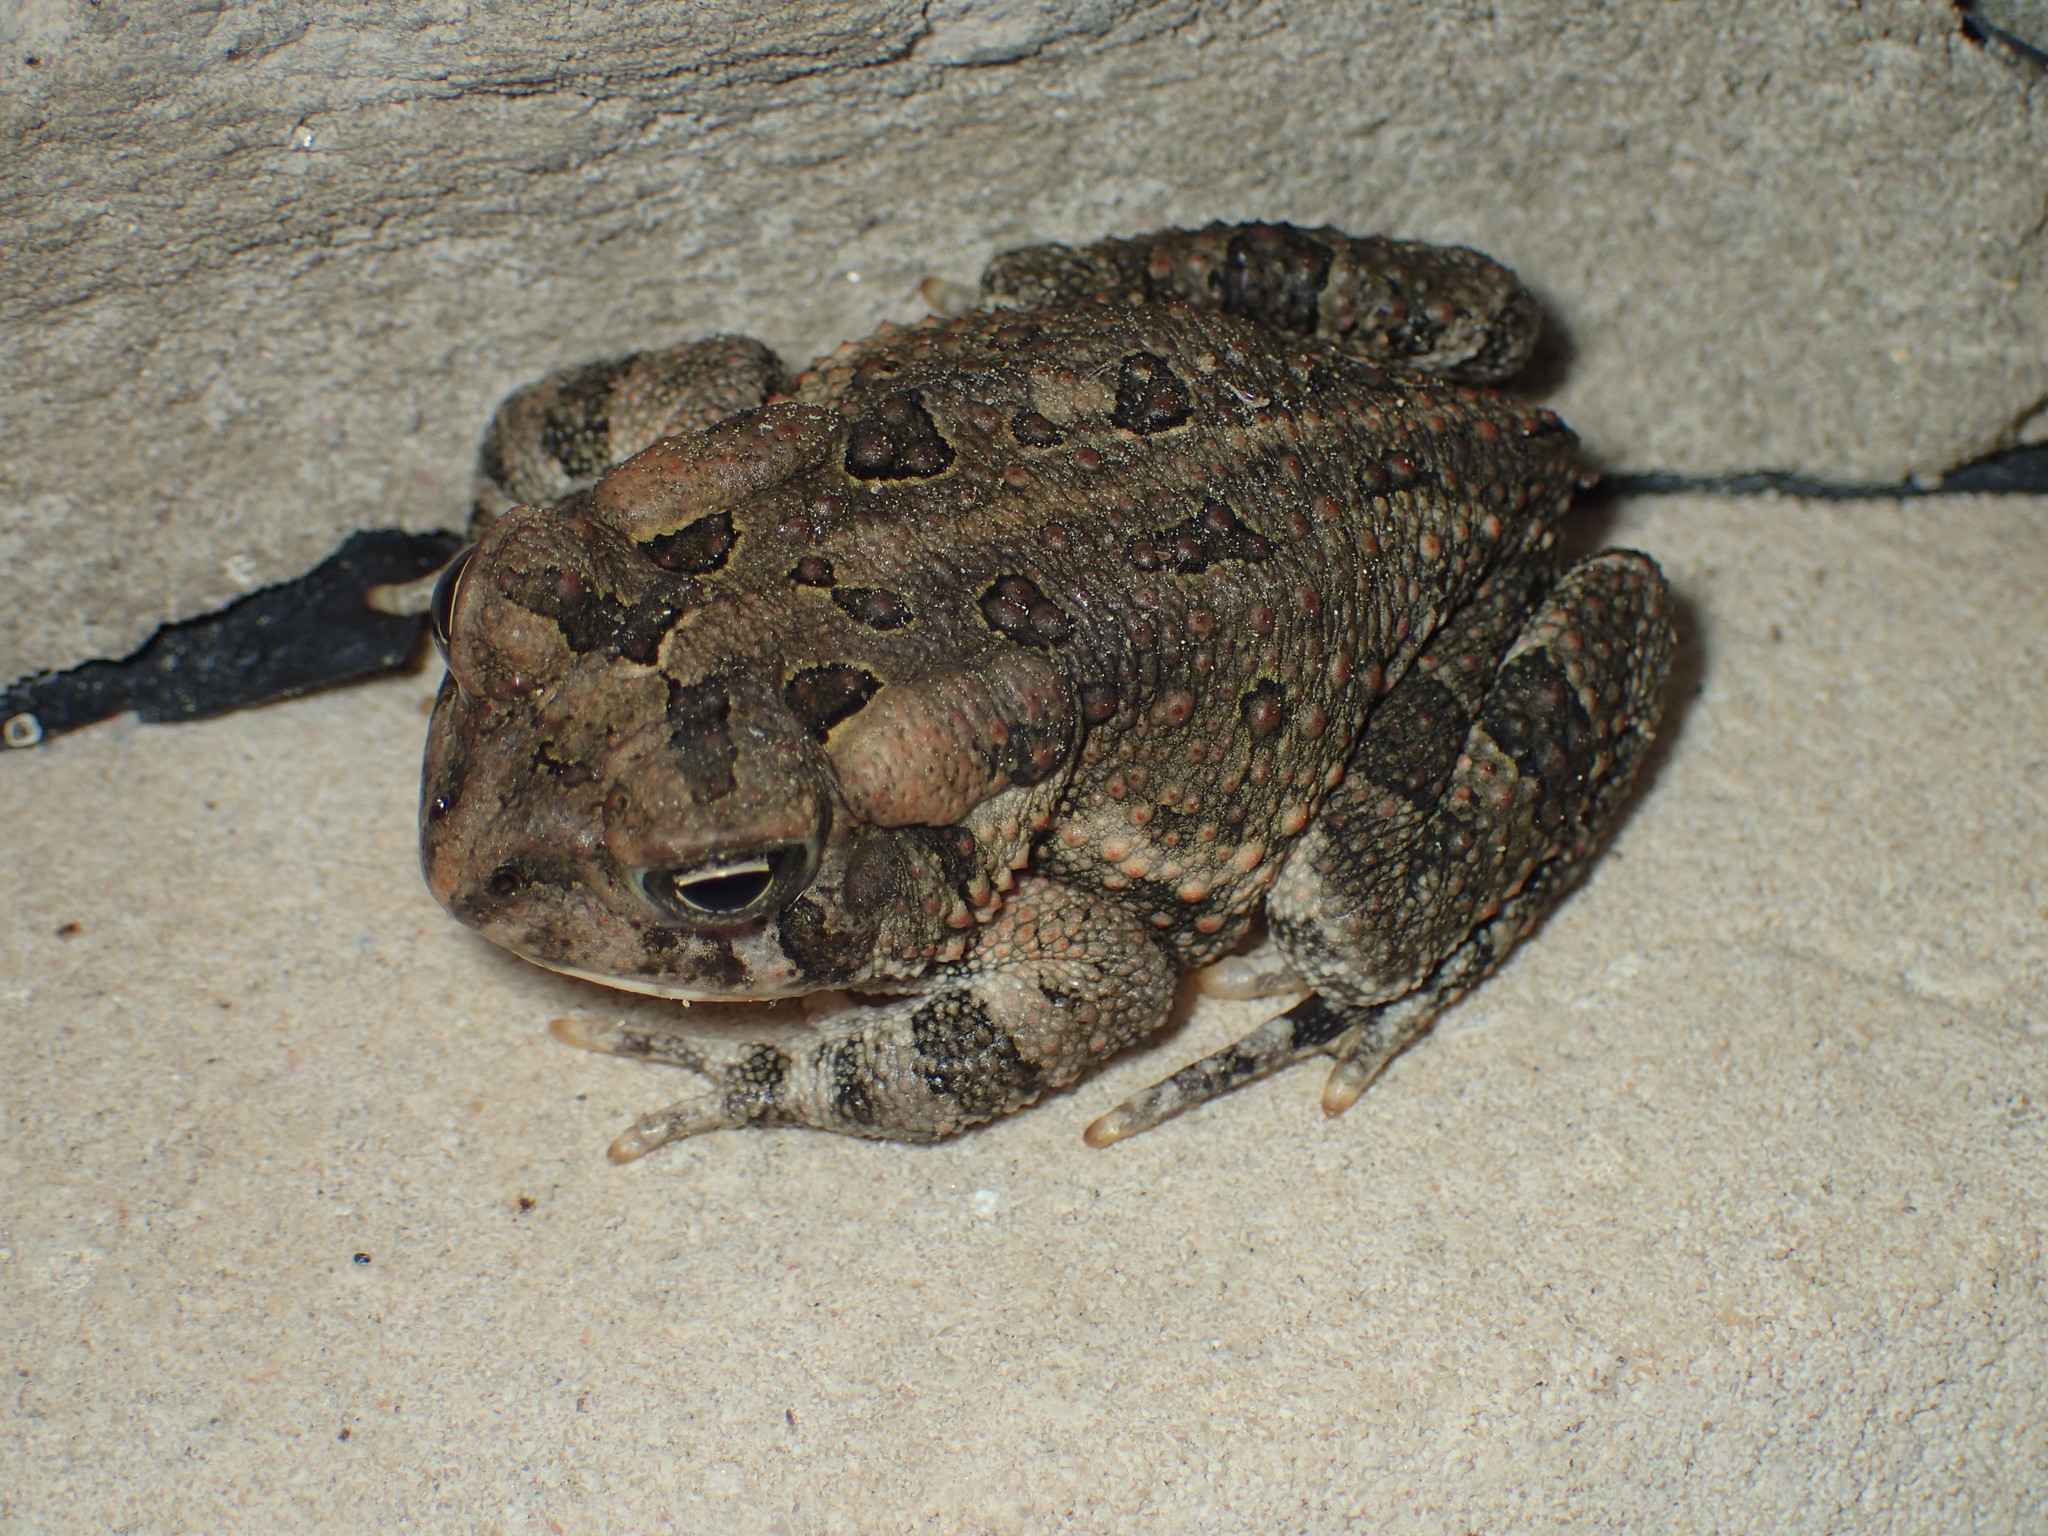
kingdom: Animalia
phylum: Chordata
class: Amphibia
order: Anura
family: Bufonidae
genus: Anaxyrus
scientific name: Anaxyrus fowleri
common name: Fowler's toad
